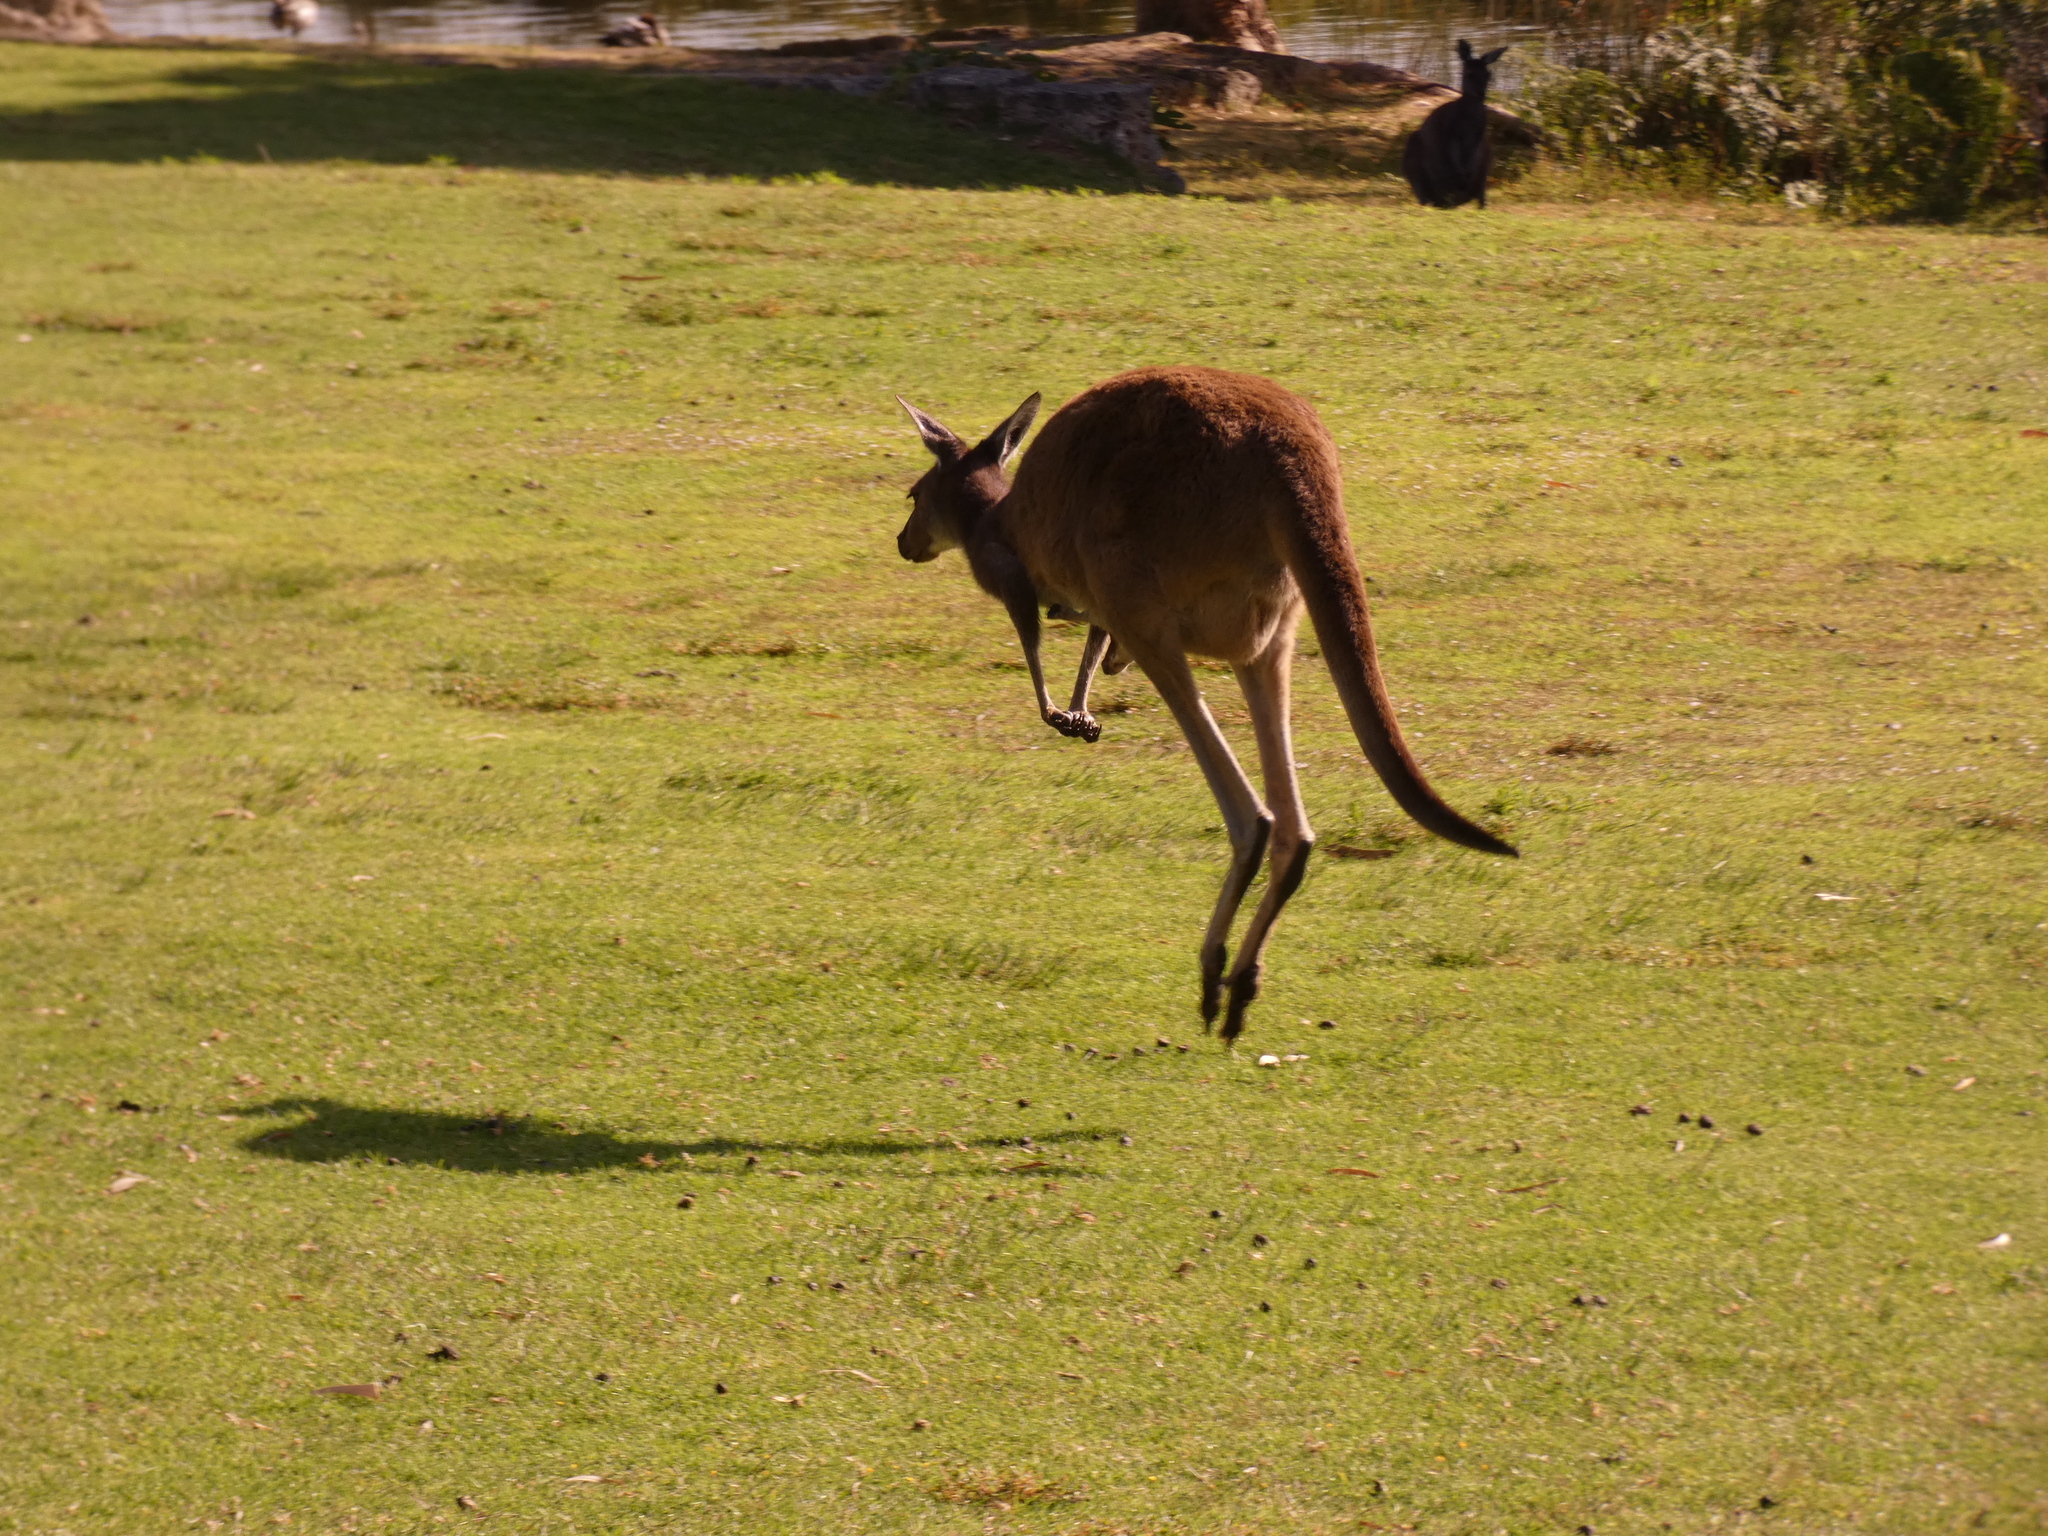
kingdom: Animalia
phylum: Chordata
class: Mammalia
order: Diprotodontia
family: Macropodidae
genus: Macropus
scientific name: Macropus fuliginosus
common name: Western grey kangaroo
